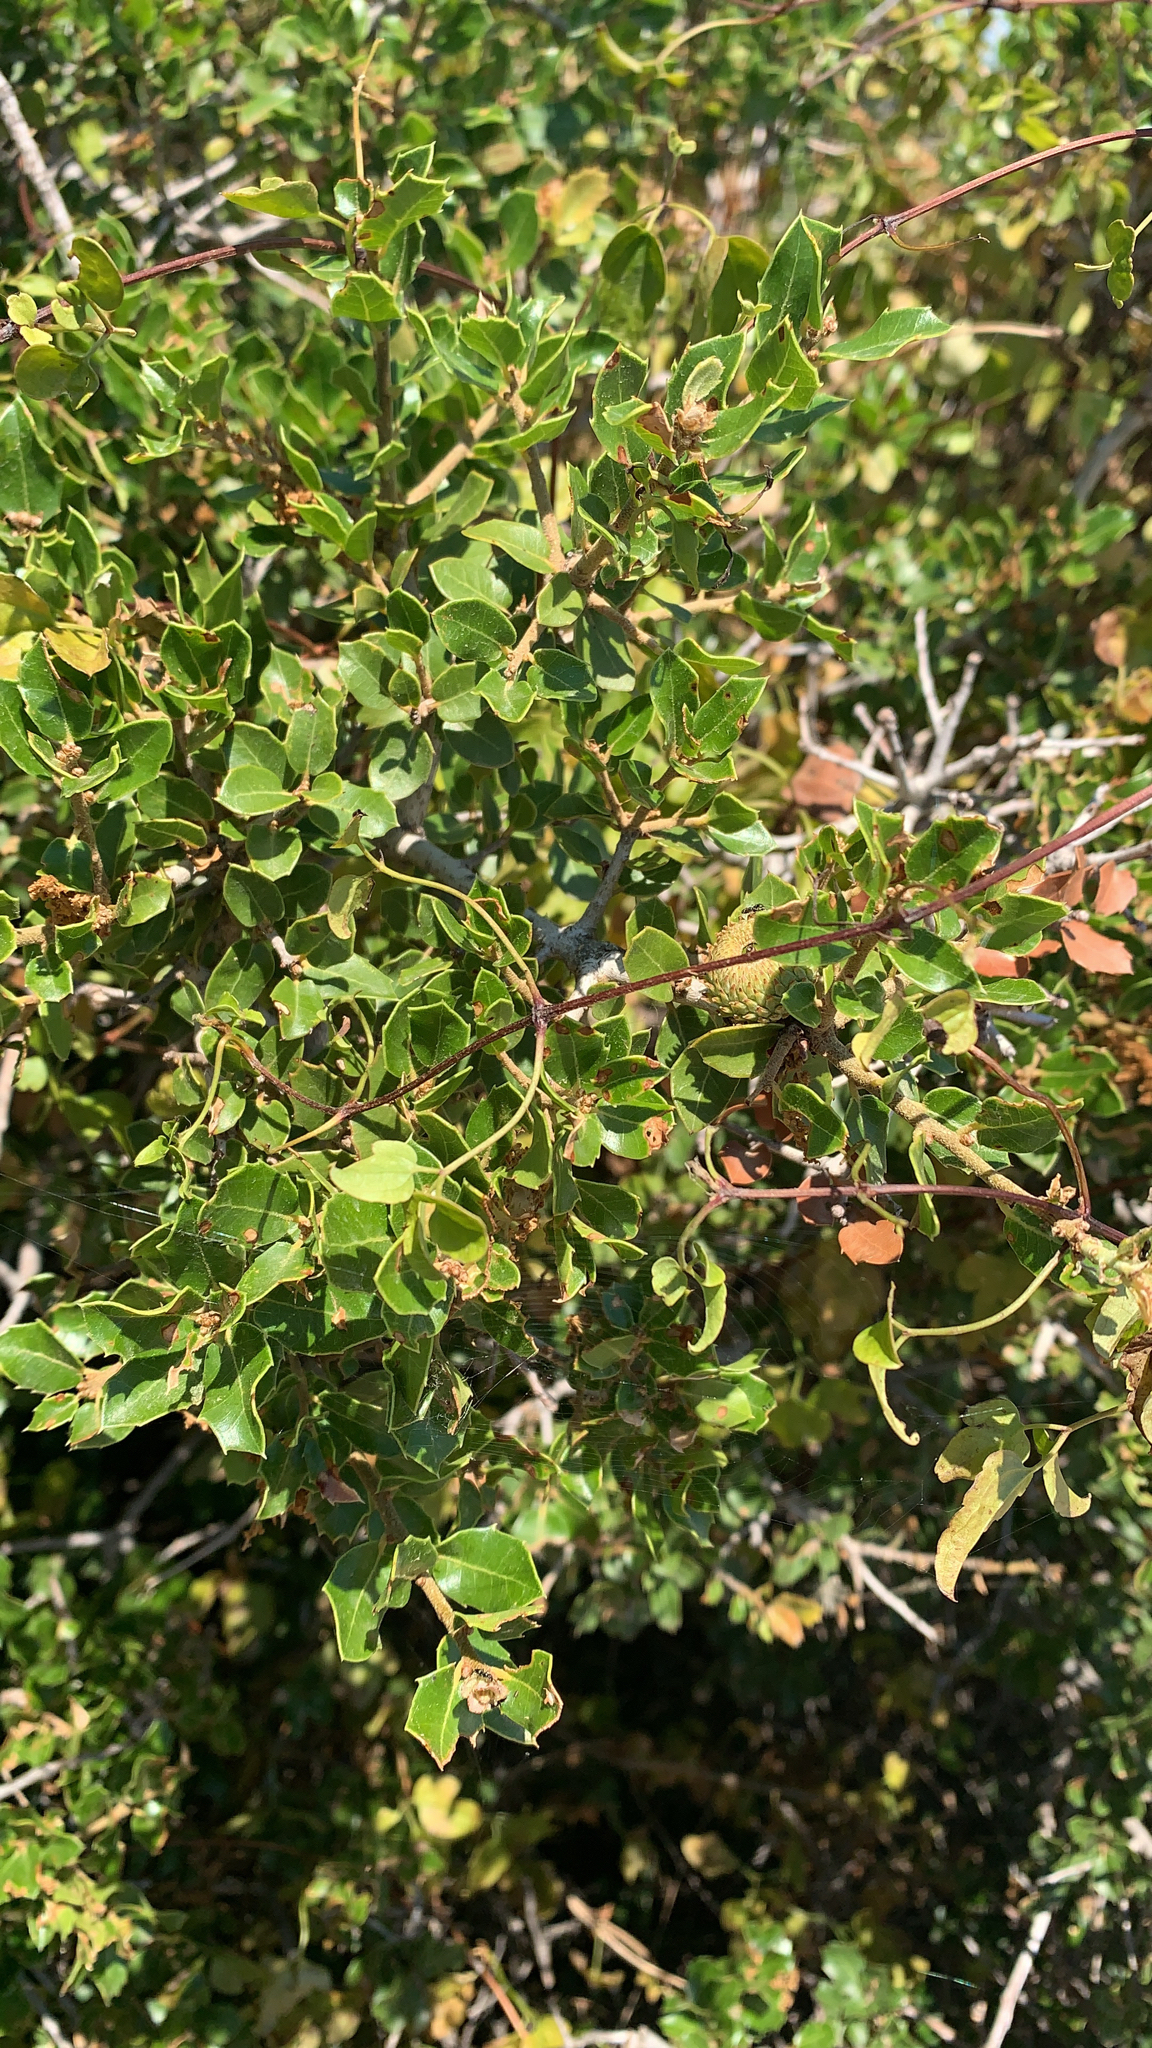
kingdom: Plantae
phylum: Tracheophyta
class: Magnoliopsida
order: Fagales
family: Fagaceae
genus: Quercus
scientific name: Quercus coccifera
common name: Kermes oak
